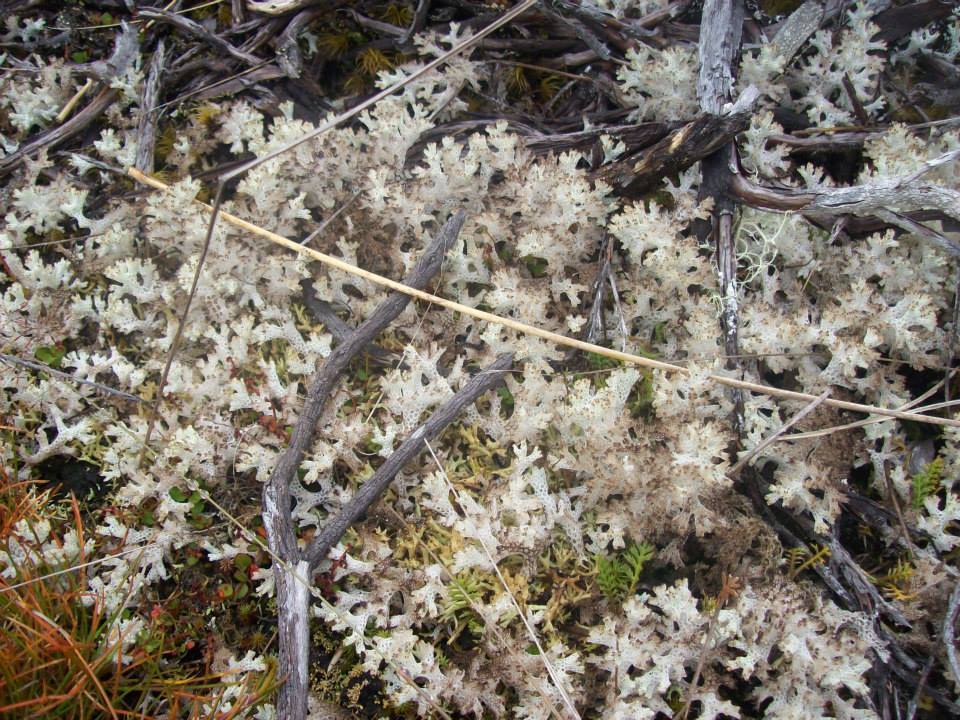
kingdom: Fungi
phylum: Ascomycota
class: Lecanoromycetes
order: Lecanorales
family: Cladoniaceae
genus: Pulchrocladia
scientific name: Pulchrocladia retipora
